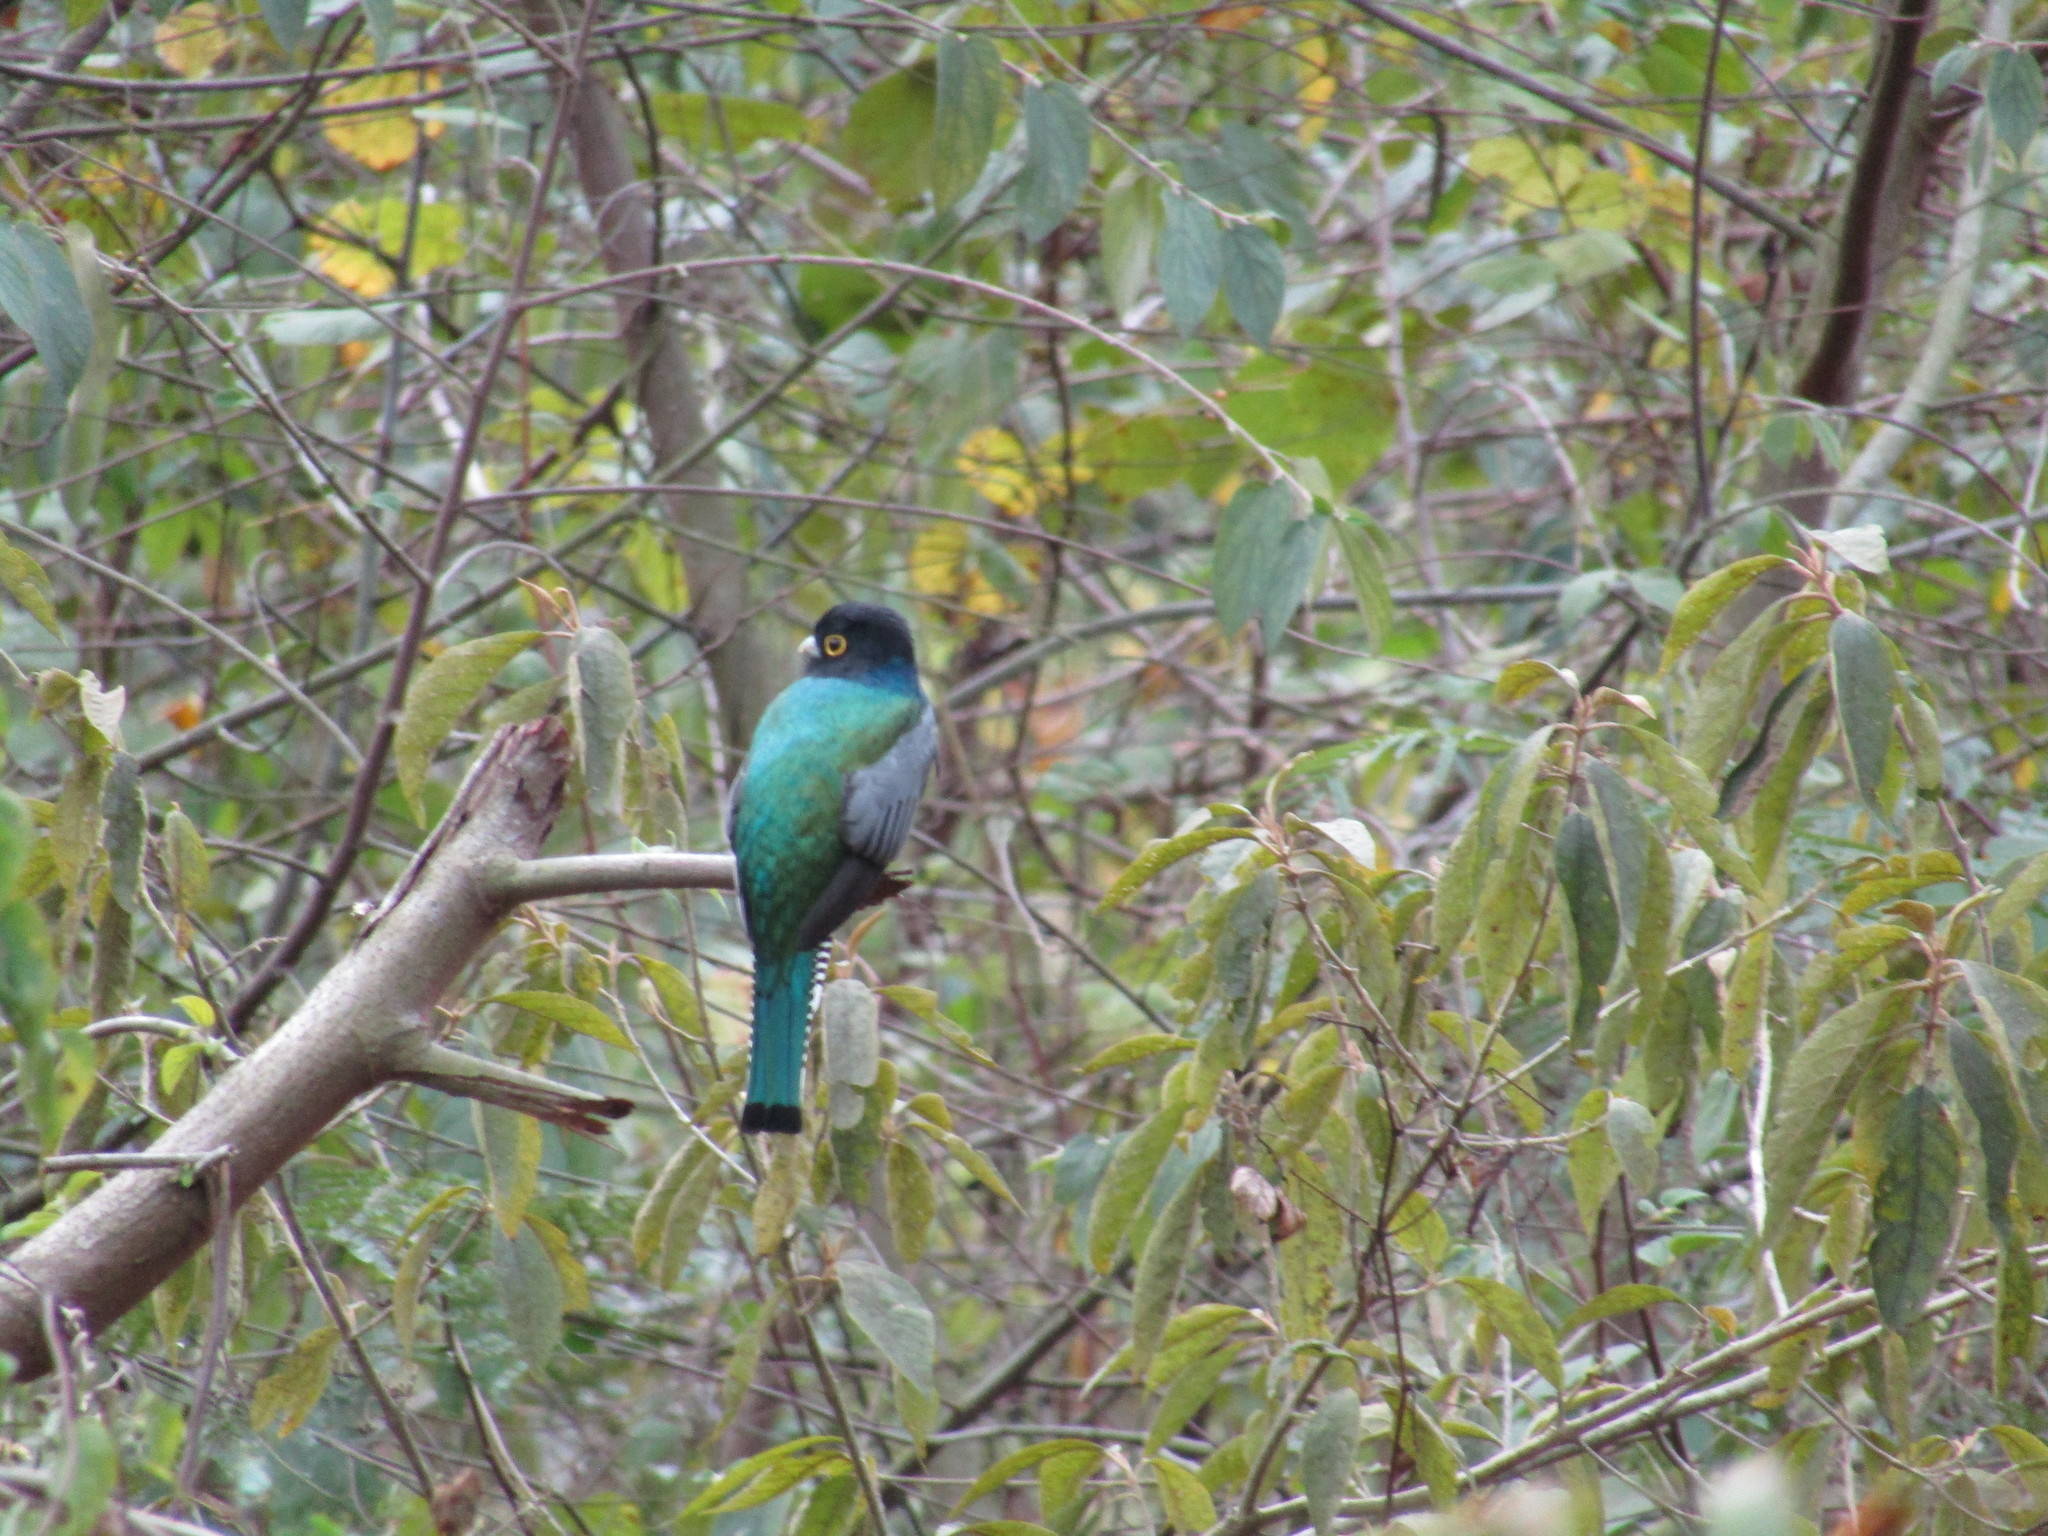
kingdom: Animalia
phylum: Chordata
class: Aves
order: Trogoniformes
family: Trogonidae
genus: Trogon
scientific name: Trogon caligatus
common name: Gartered trogon
